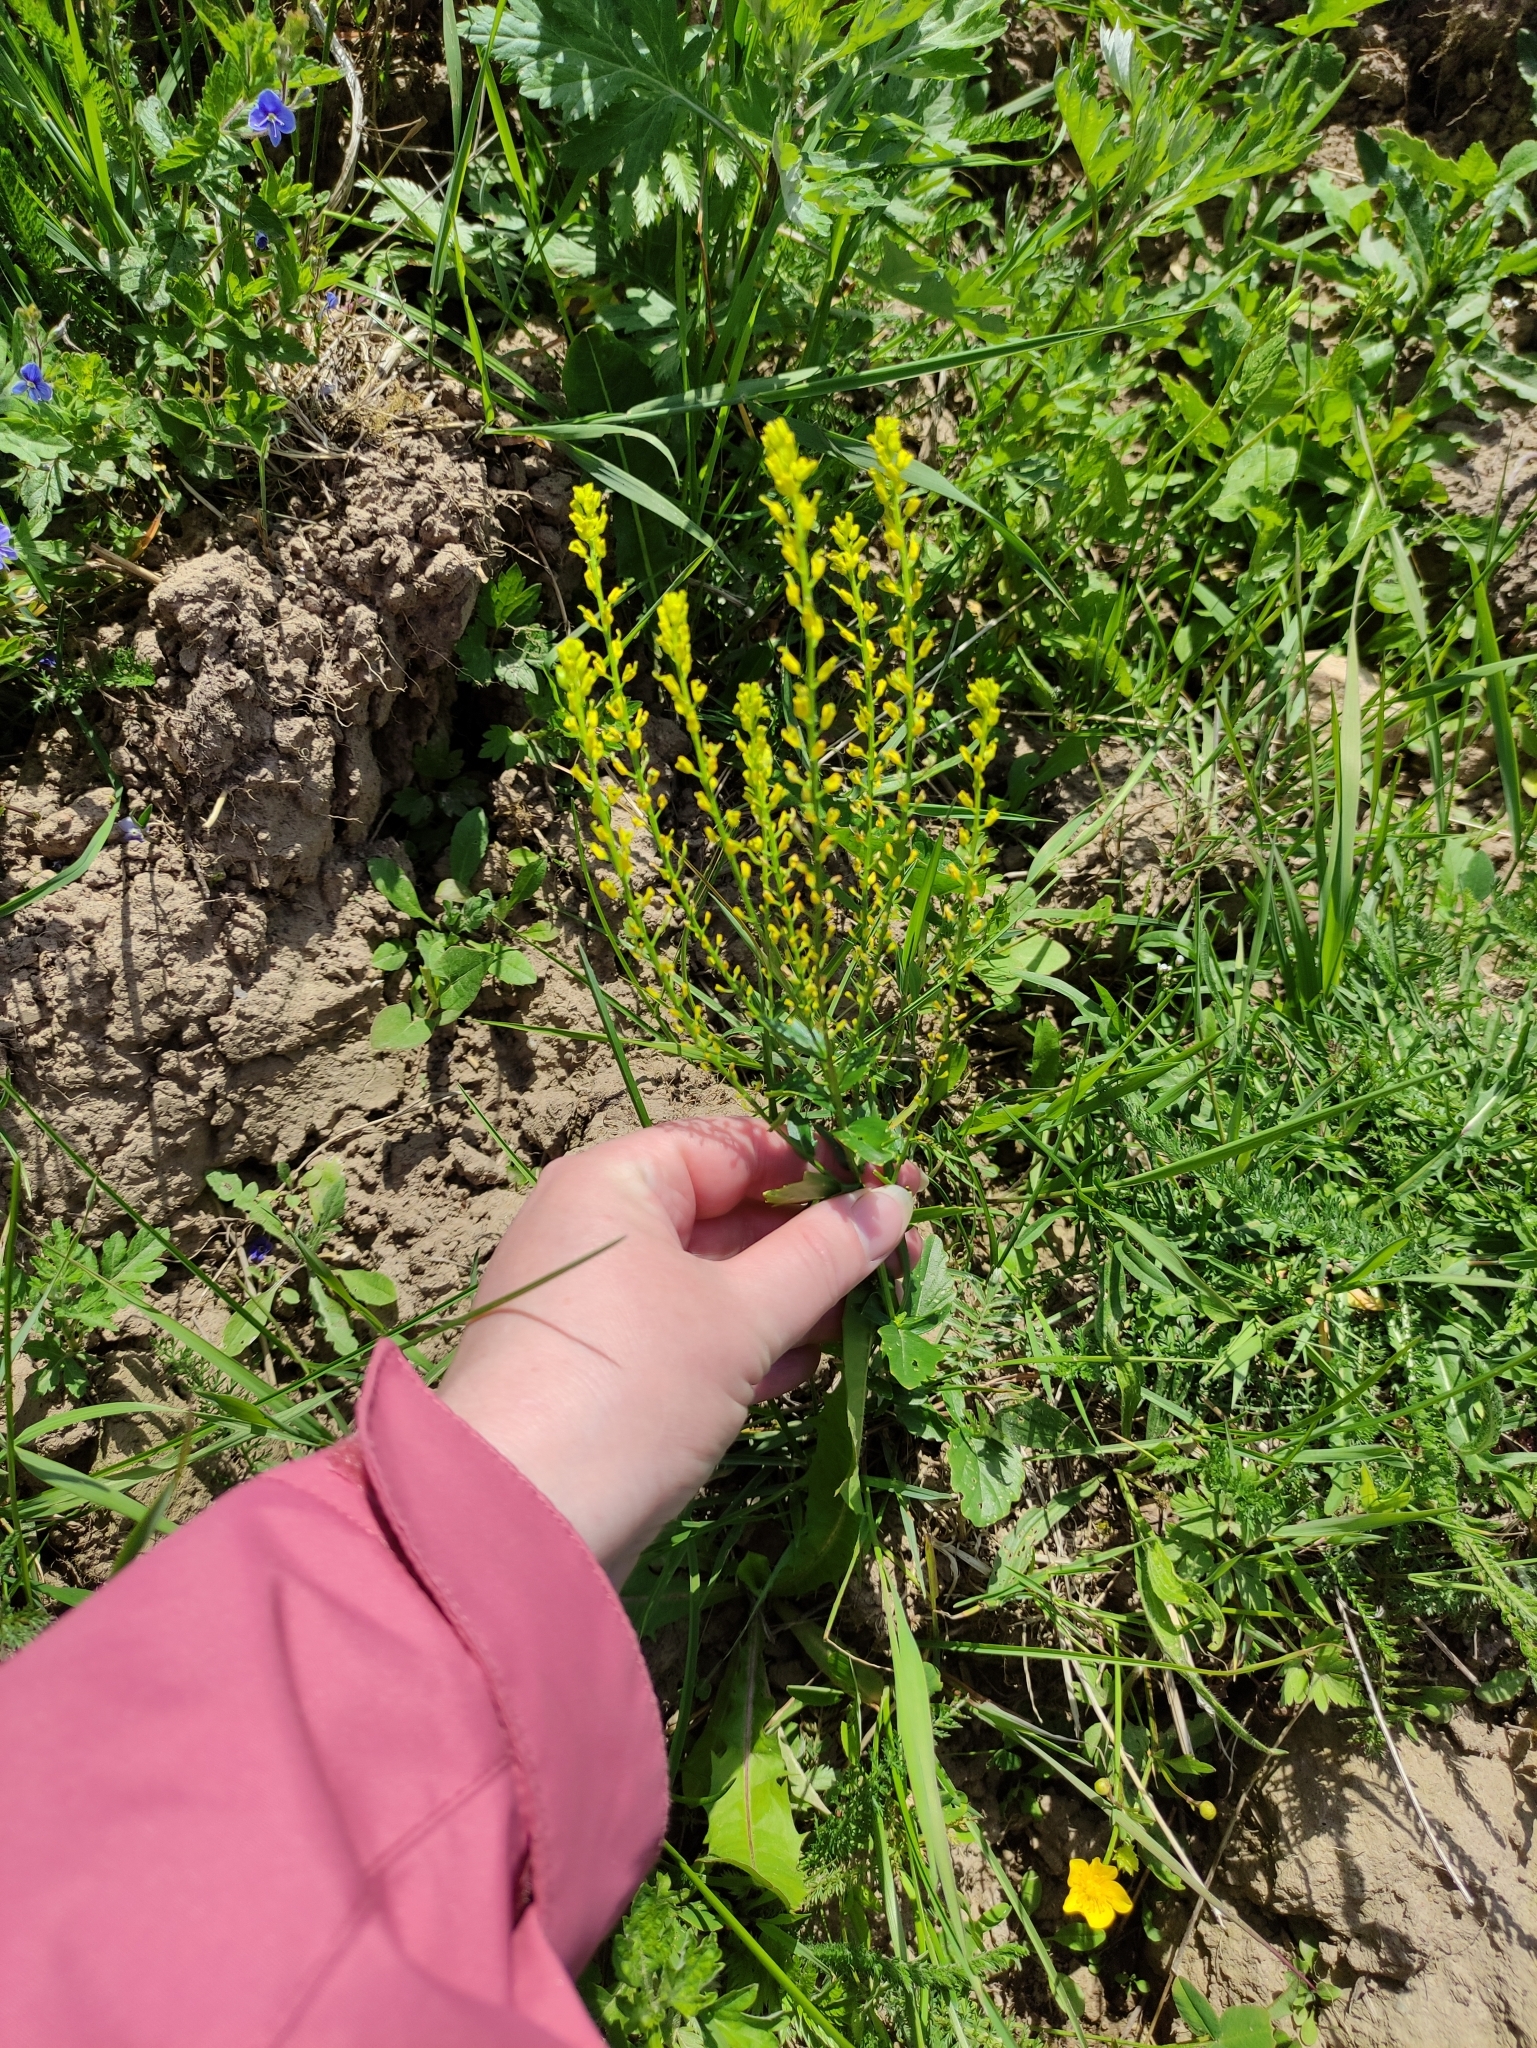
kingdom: Plantae
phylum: Tracheophyta
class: Magnoliopsida
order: Brassicales
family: Brassicaceae
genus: Barbarea
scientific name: Barbarea vulgaris
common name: Cressy-greens
